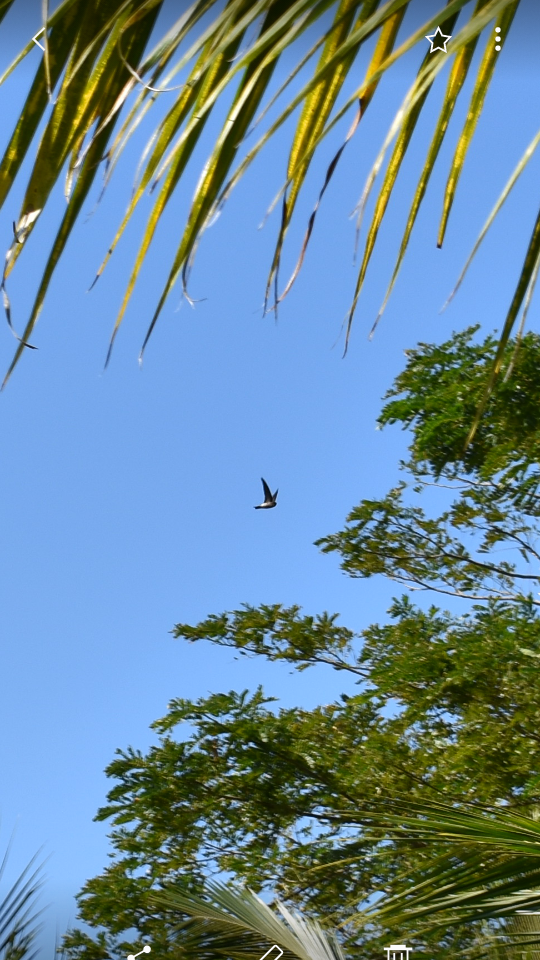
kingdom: Animalia
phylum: Chordata
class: Aves
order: Apodiformes
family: Apodidae
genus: Aerodramus
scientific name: Aerodramus francicus
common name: Mascarene swiftlet
